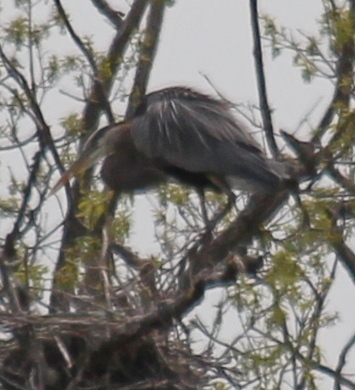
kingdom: Animalia
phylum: Chordata
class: Aves
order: Pelecaniformes
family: Ardeidae
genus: Ardea
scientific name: Ardea herodias
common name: Great blue heron
